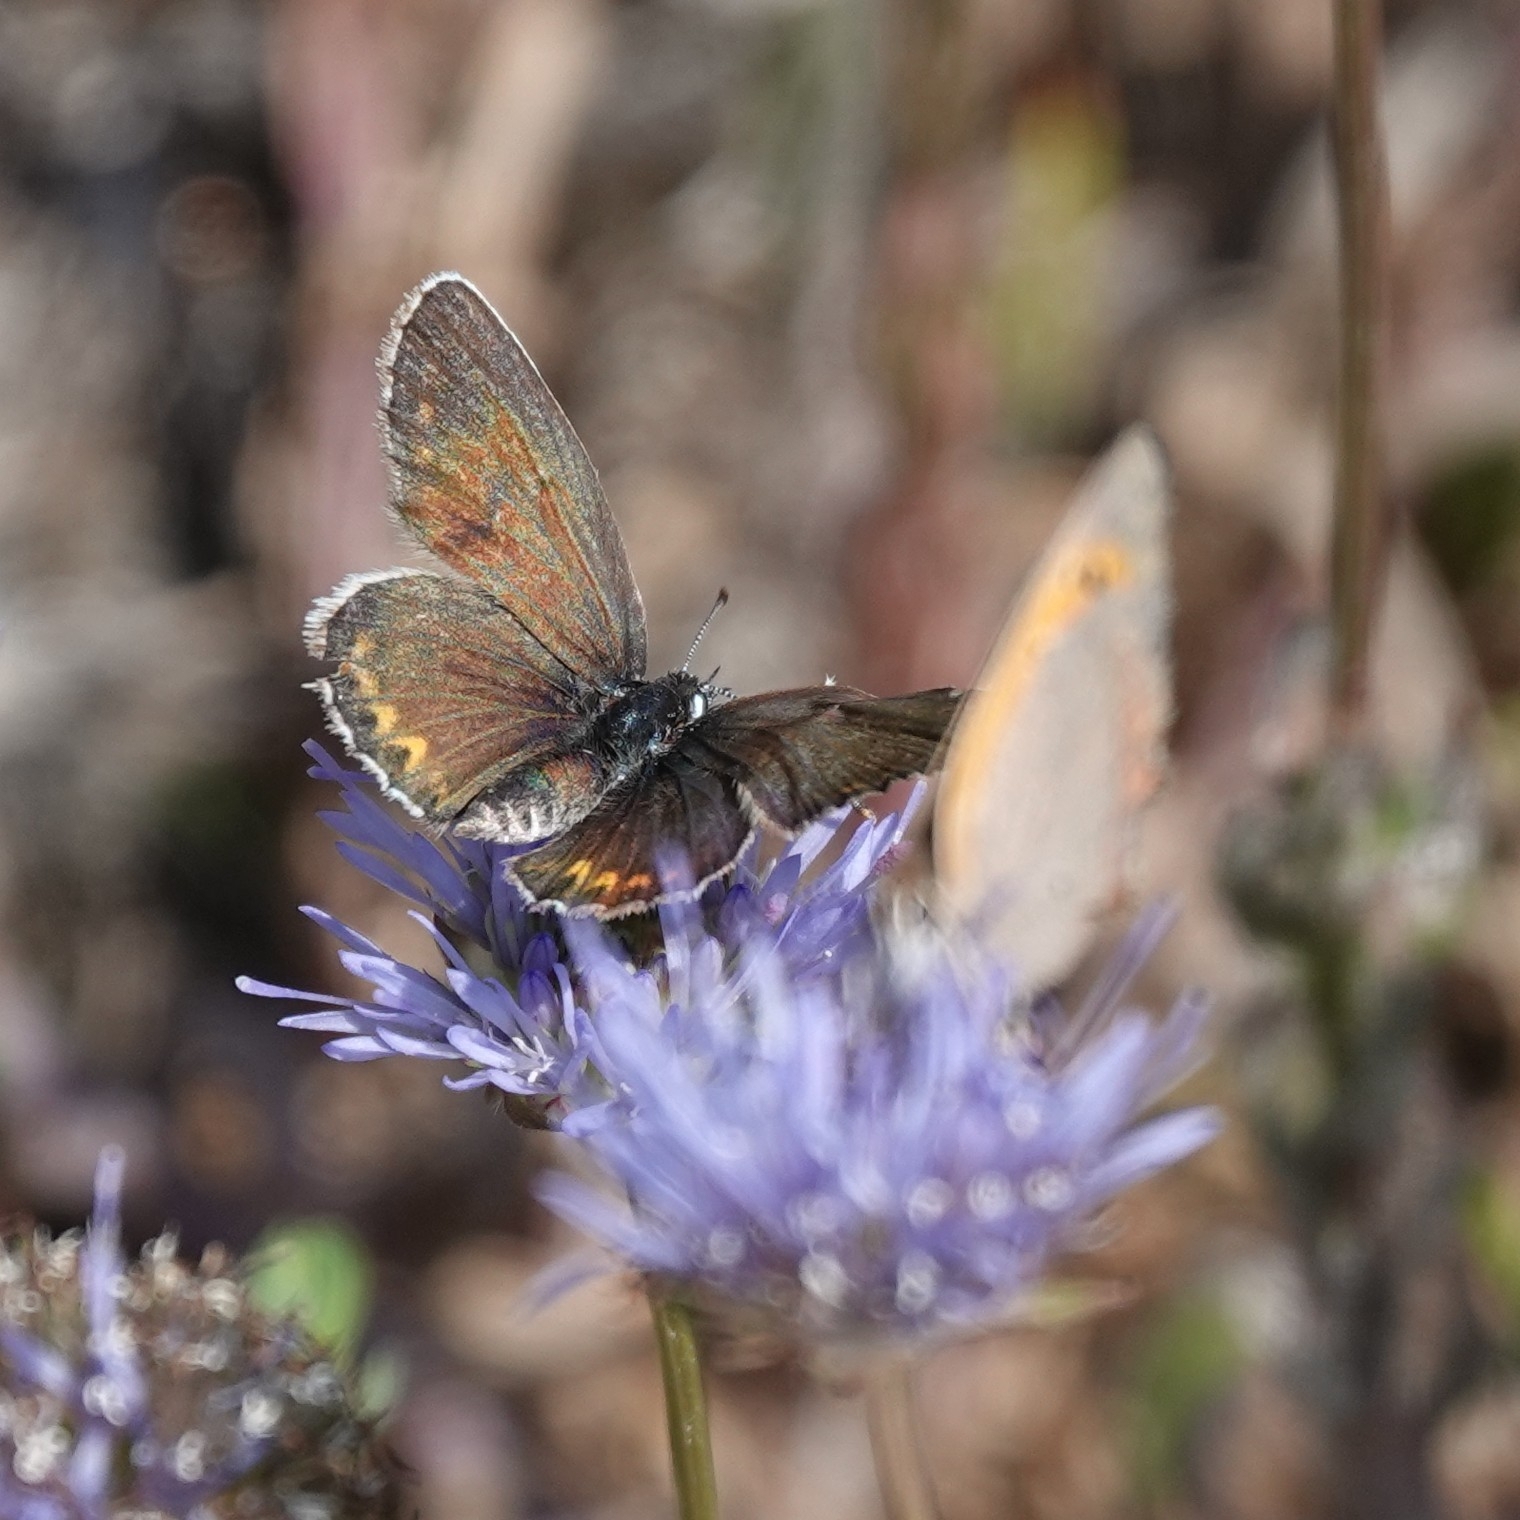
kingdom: Animalia
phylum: Arthropoda
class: Insecta
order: Lepidoptera
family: Lycaenidae
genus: Lycaeides
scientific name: Lycaeides idas
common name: Northern blue
